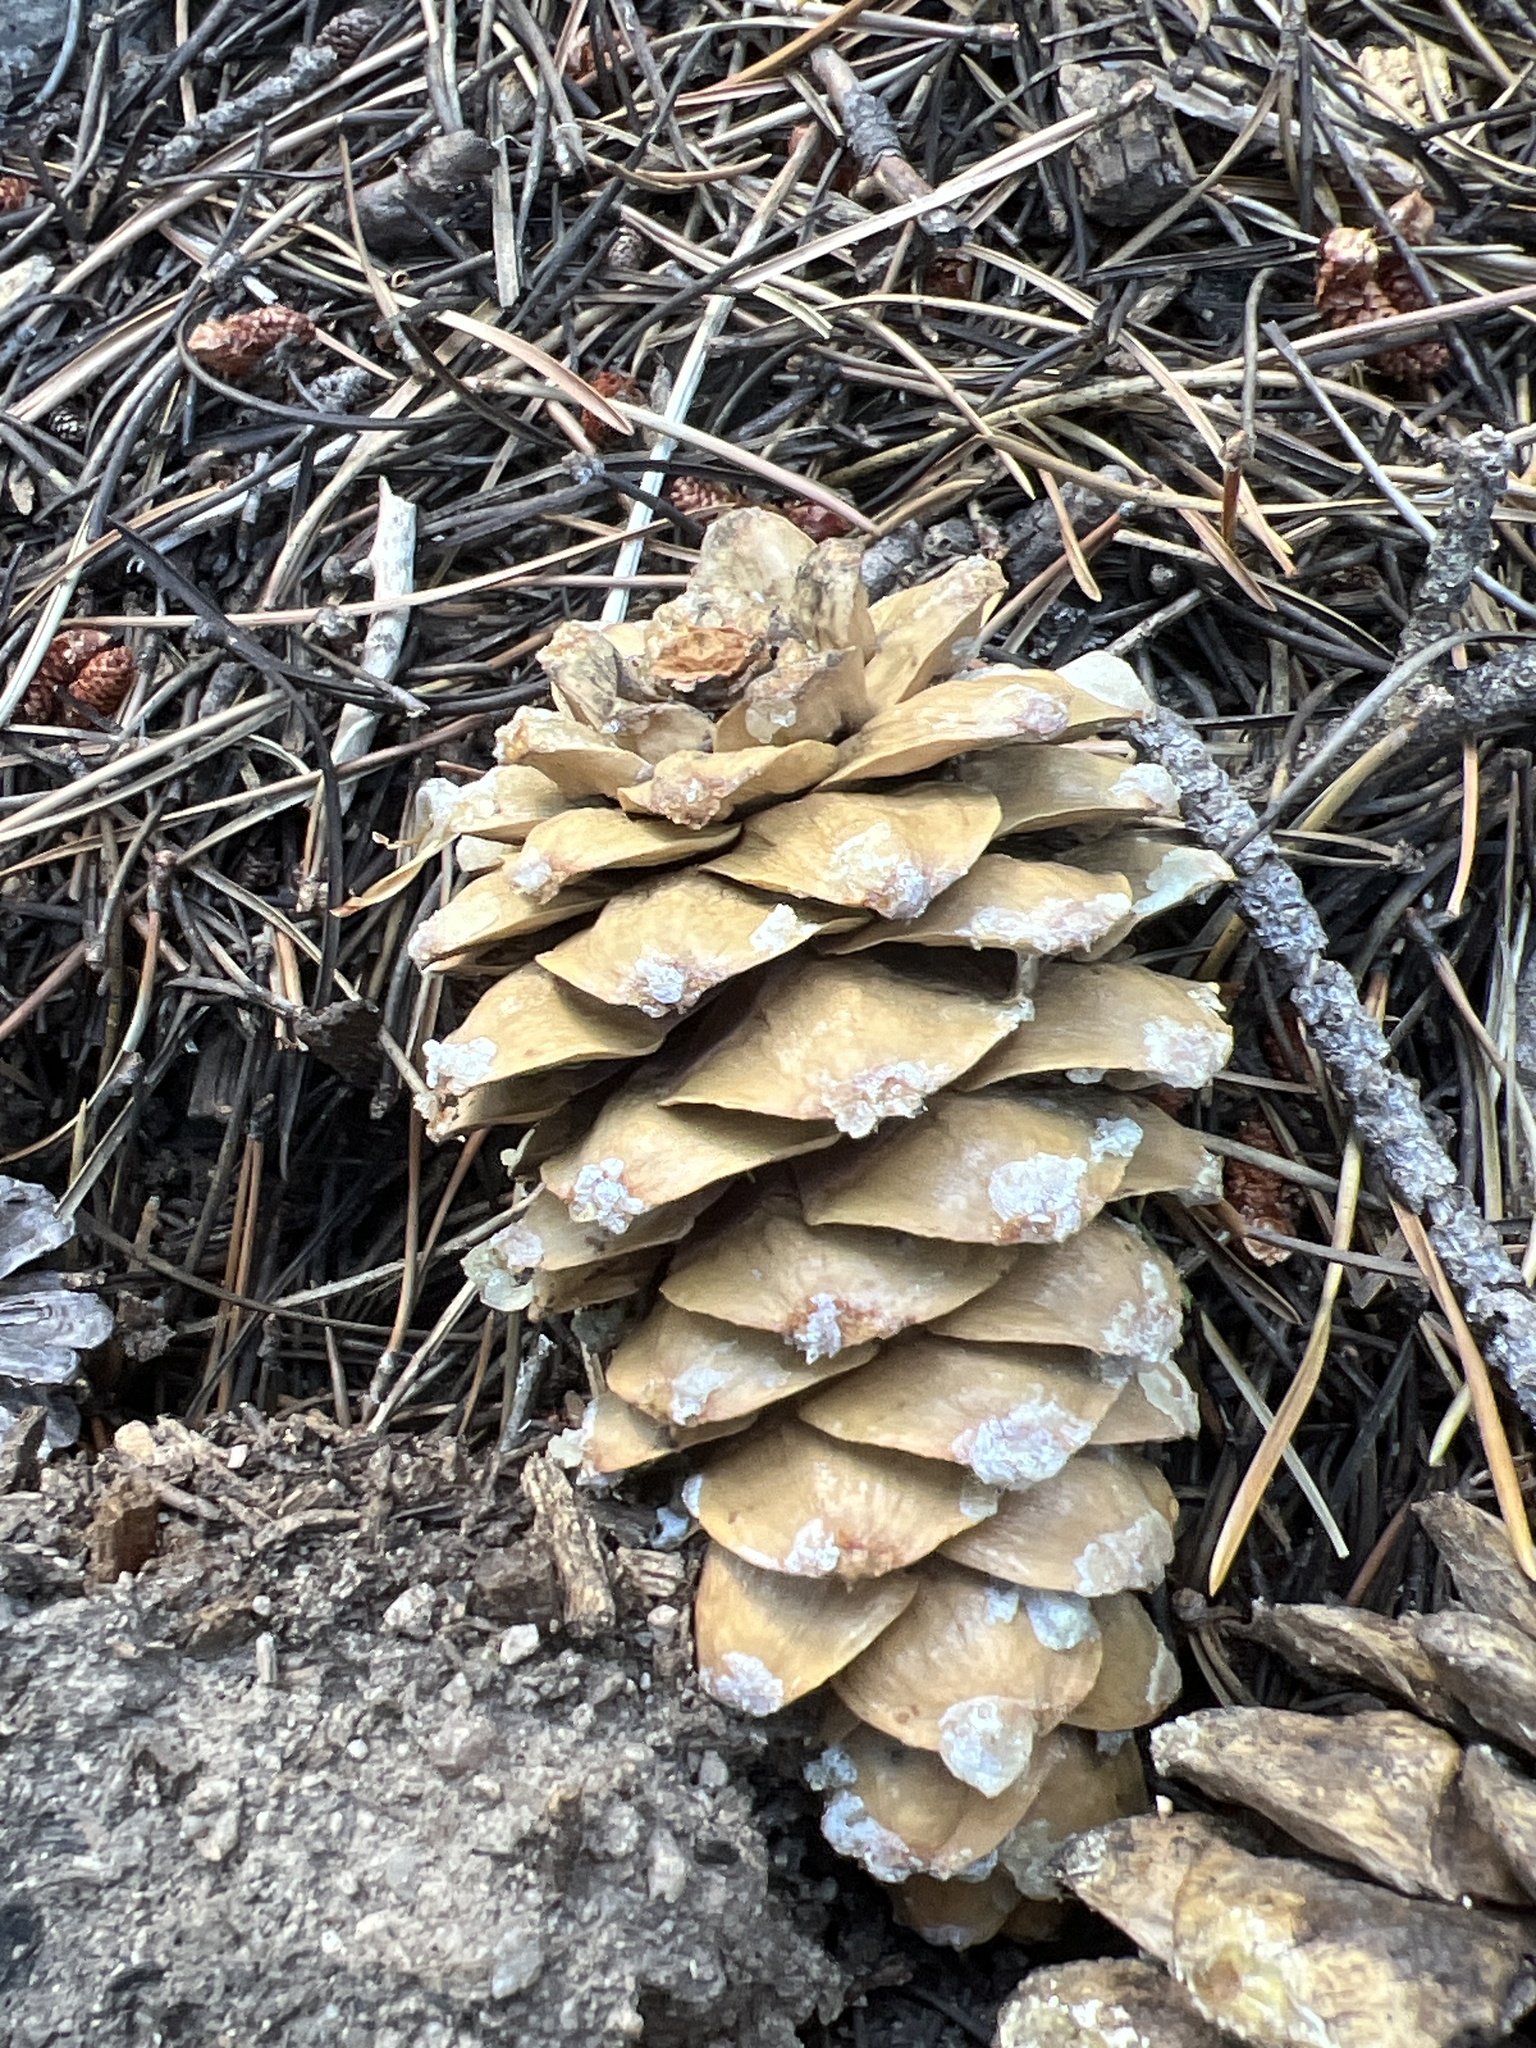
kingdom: Plantae
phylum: Tracheophyta
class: Pinopsida
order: Pinales
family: Pinaceae
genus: Pinus
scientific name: Pinus flexilis
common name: Limber pine
